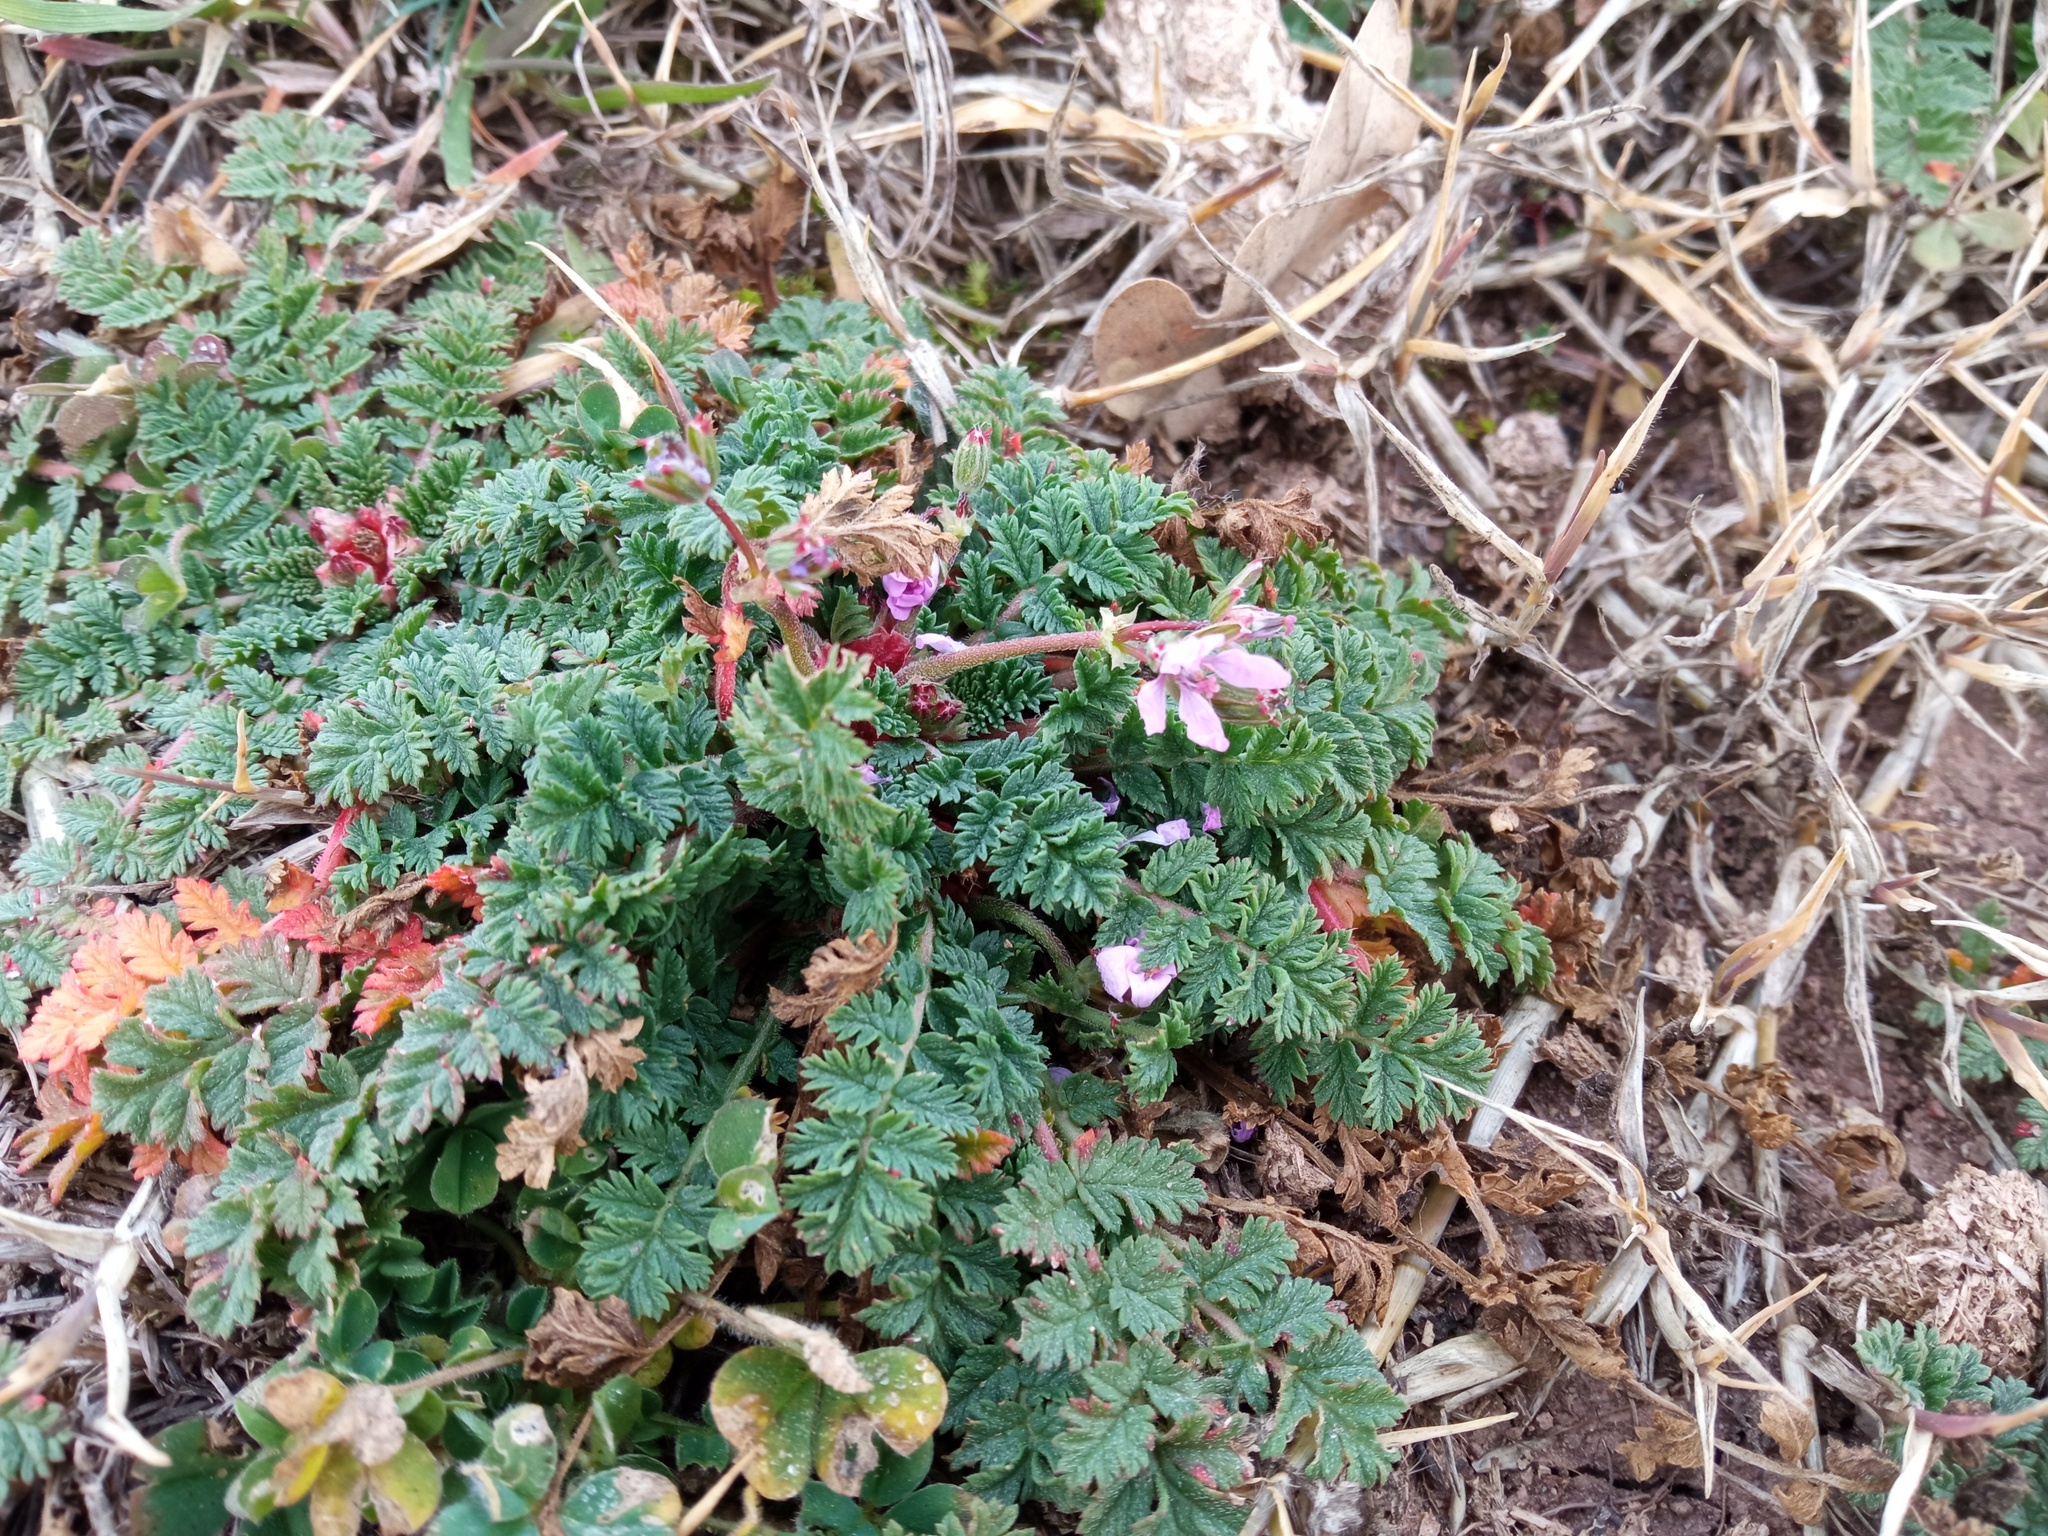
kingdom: Plantae
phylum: Tracheophyta
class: Magnoliopsida
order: Geraniales
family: Geraniaceae
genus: Erodium
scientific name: Erodium cicutarium
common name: Common stork's-bill
